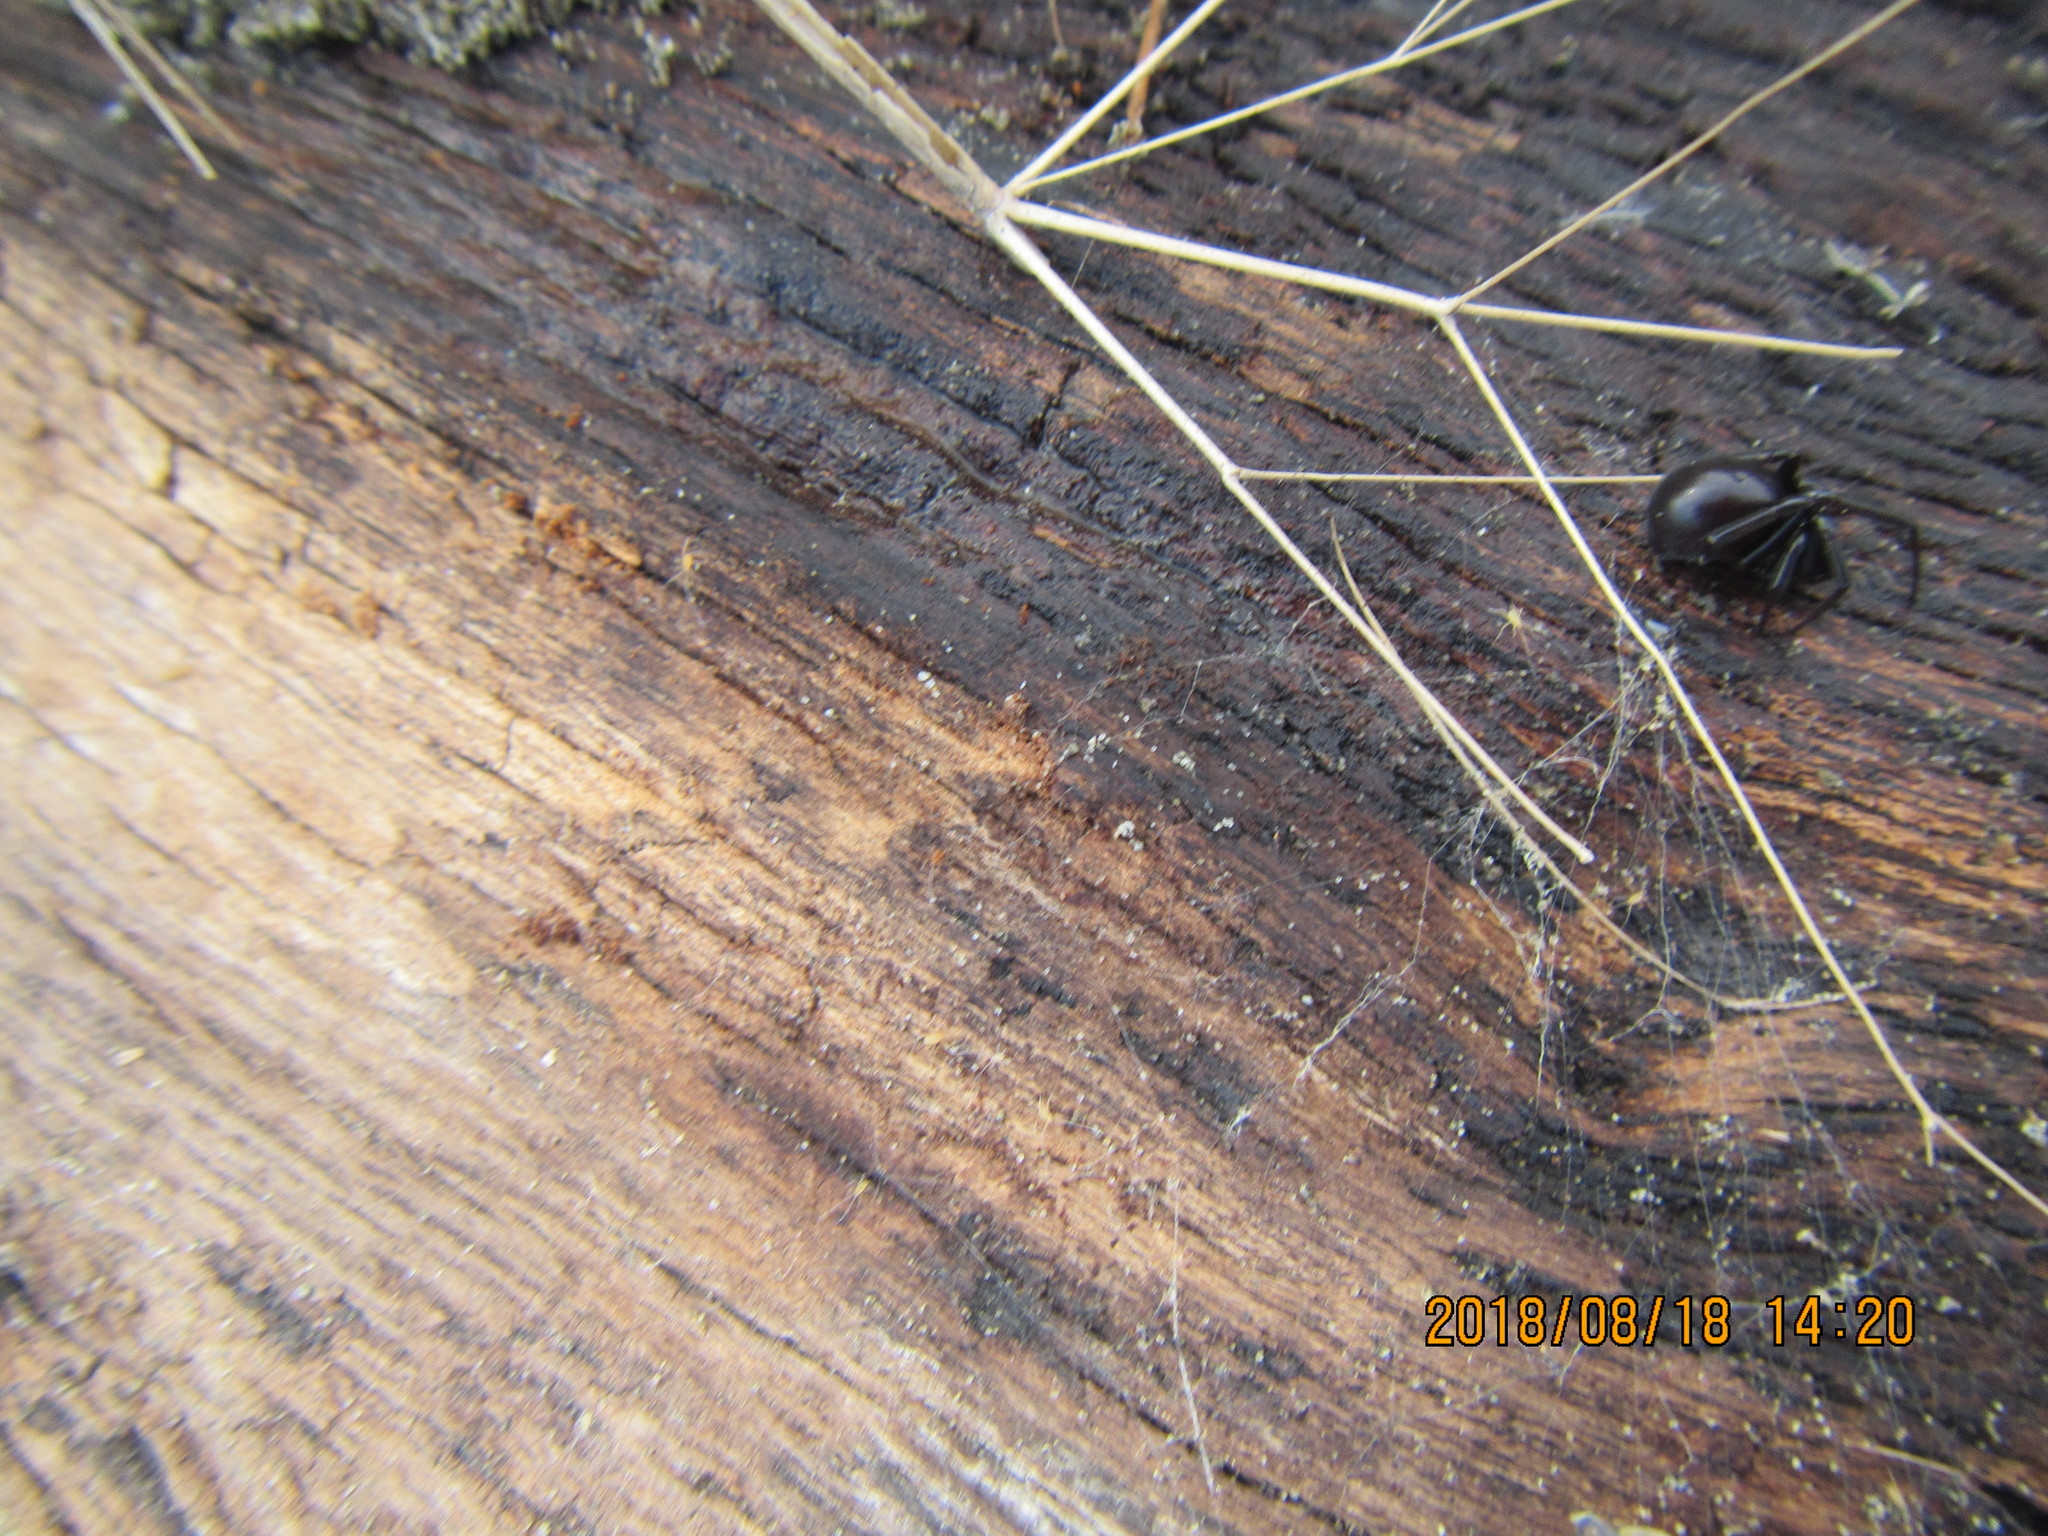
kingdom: Animalia
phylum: Arthropoda
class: Arachnida
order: Araneae
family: Theridiidae
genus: Steatoda
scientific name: Steatoda capensis
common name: Cobweb weaver
